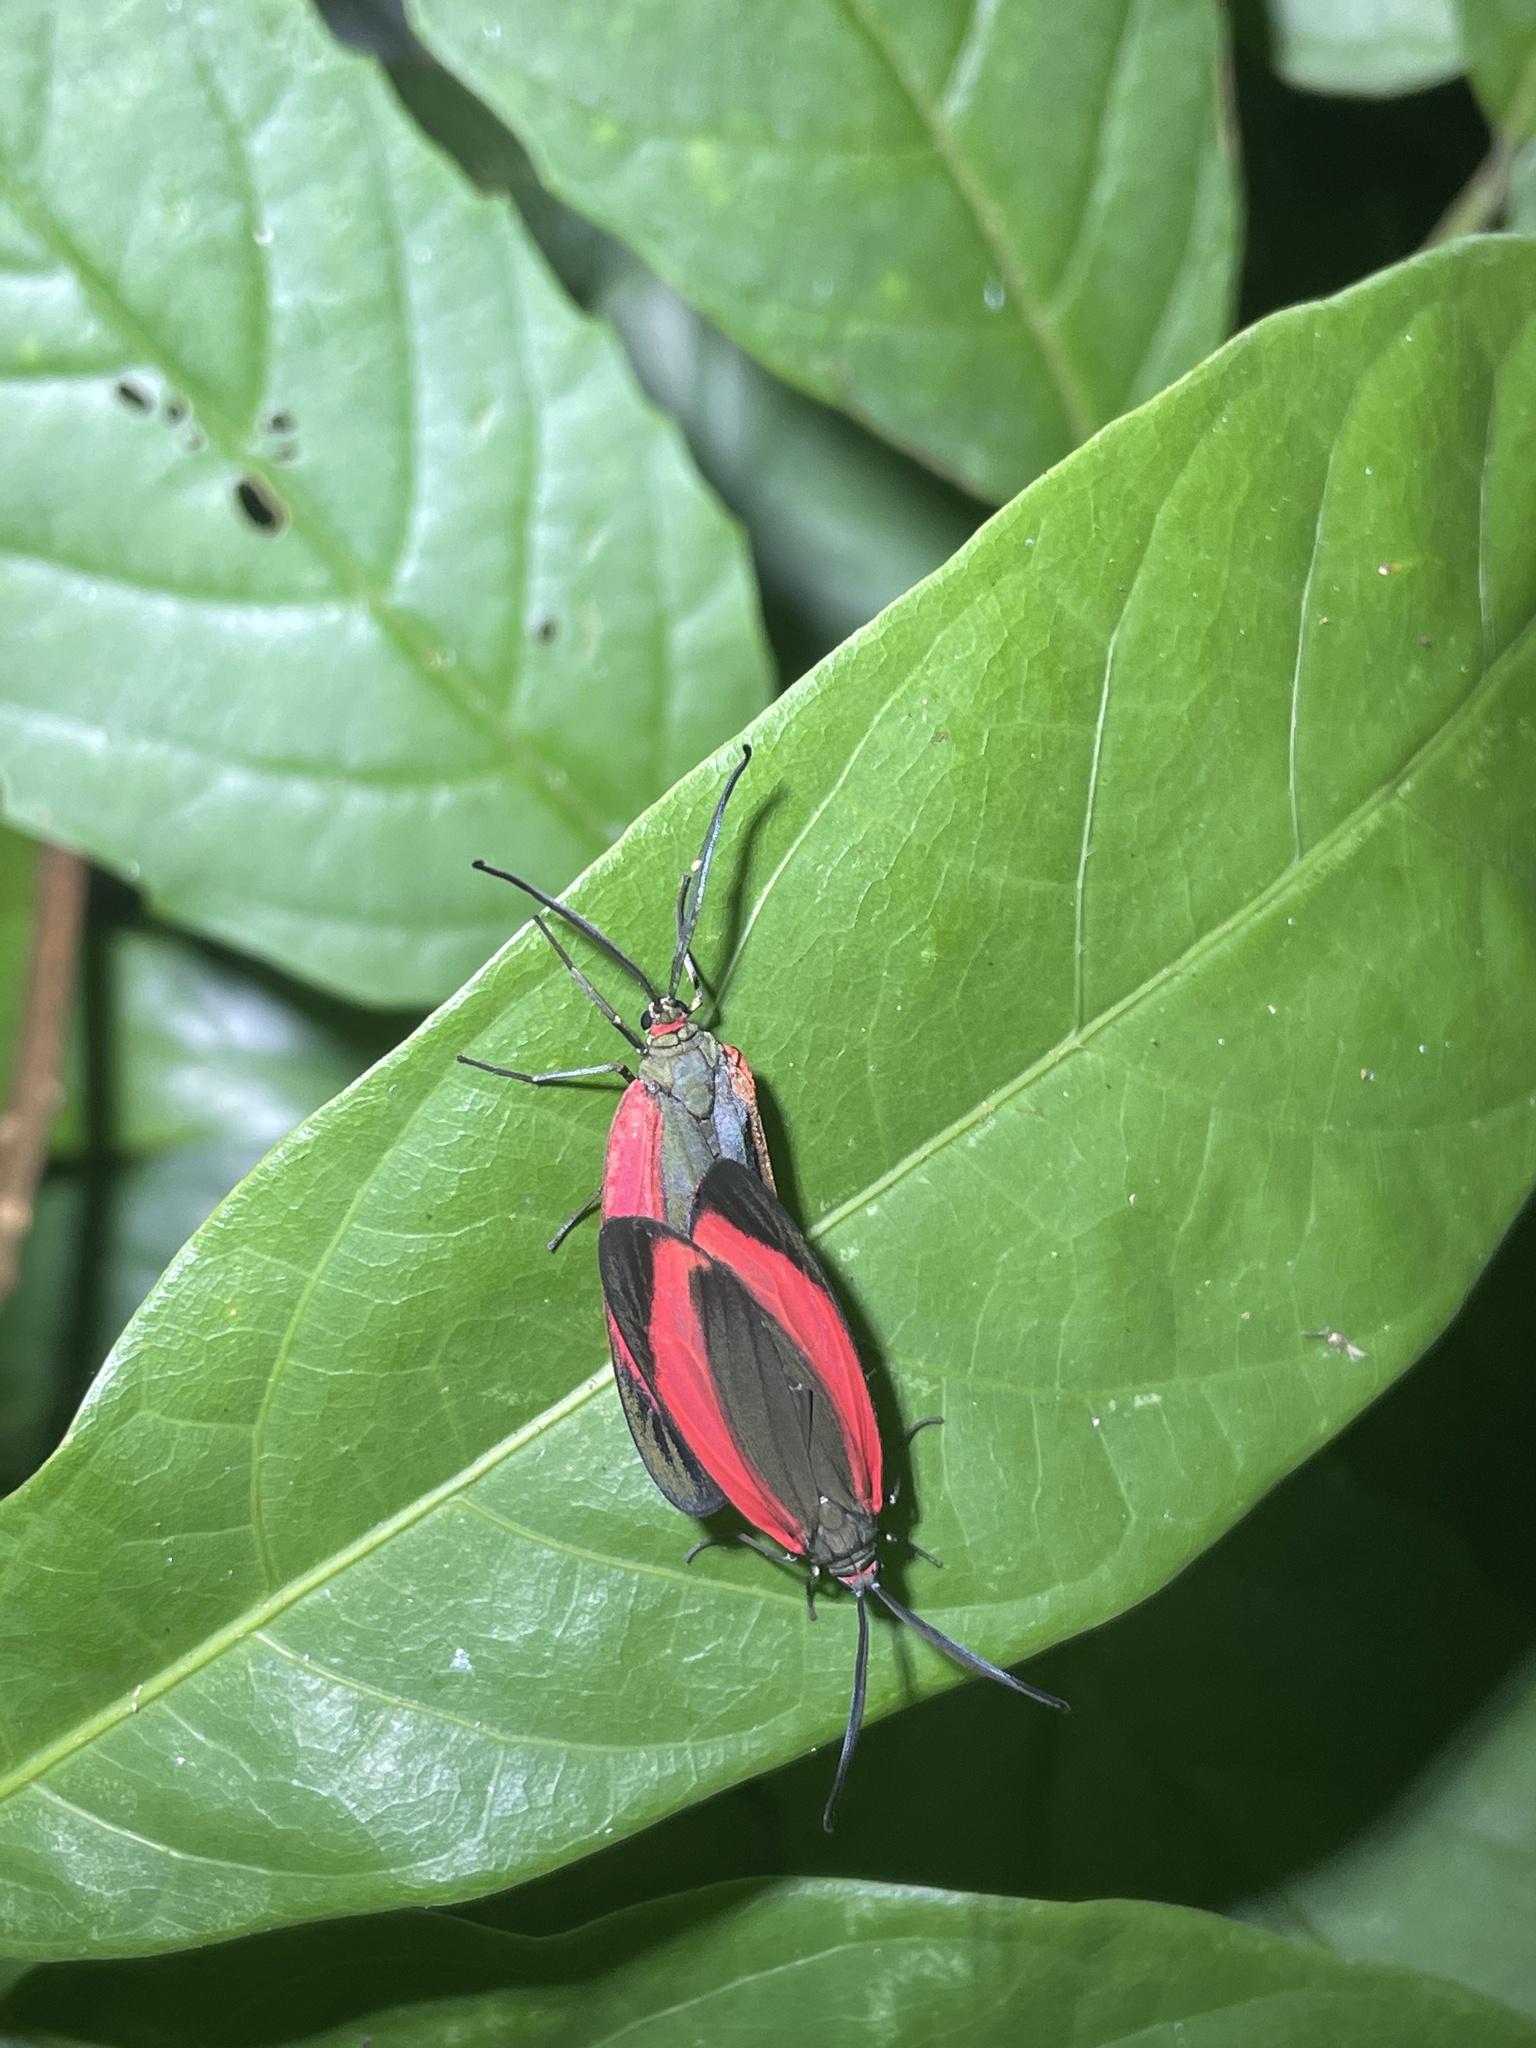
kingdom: Animalia
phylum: Arthropoda
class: Insecta
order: Lepidoptera
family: Zygaenidae
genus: Retina
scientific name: Retina rubrivitta
